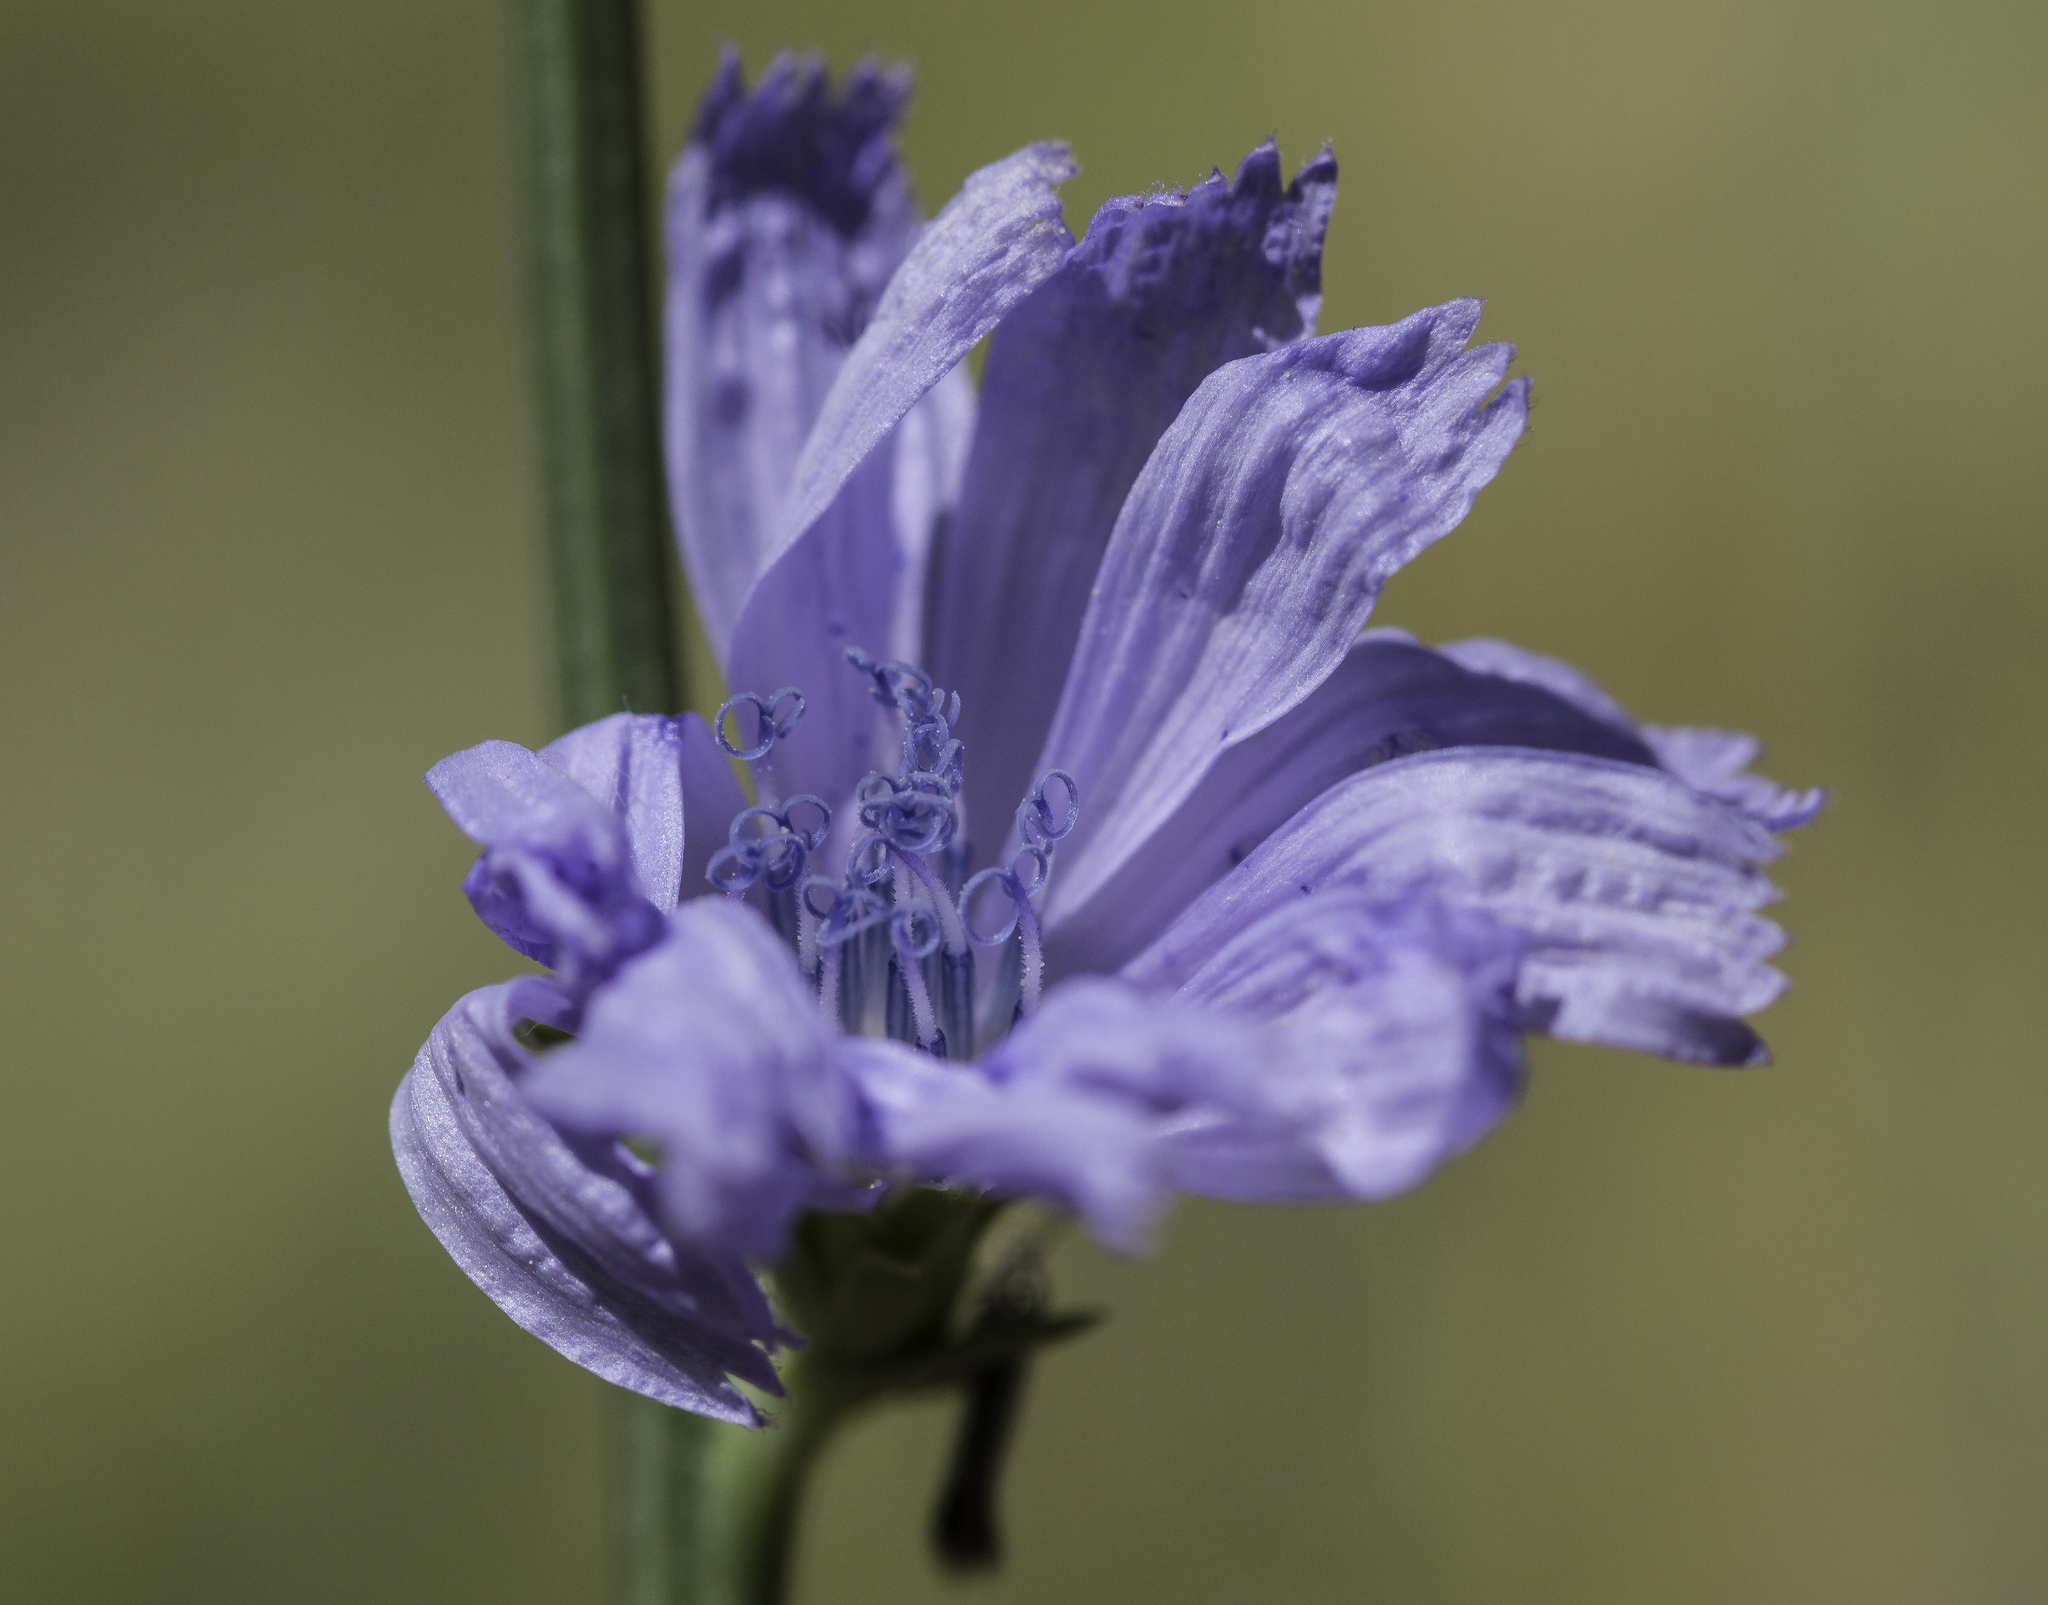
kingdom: Plantae
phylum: Tracheophyta
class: Magnoliopsida
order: Asterales
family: Asteraceae
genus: Cichorium
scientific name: Cichorium intybus
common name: Chicory
